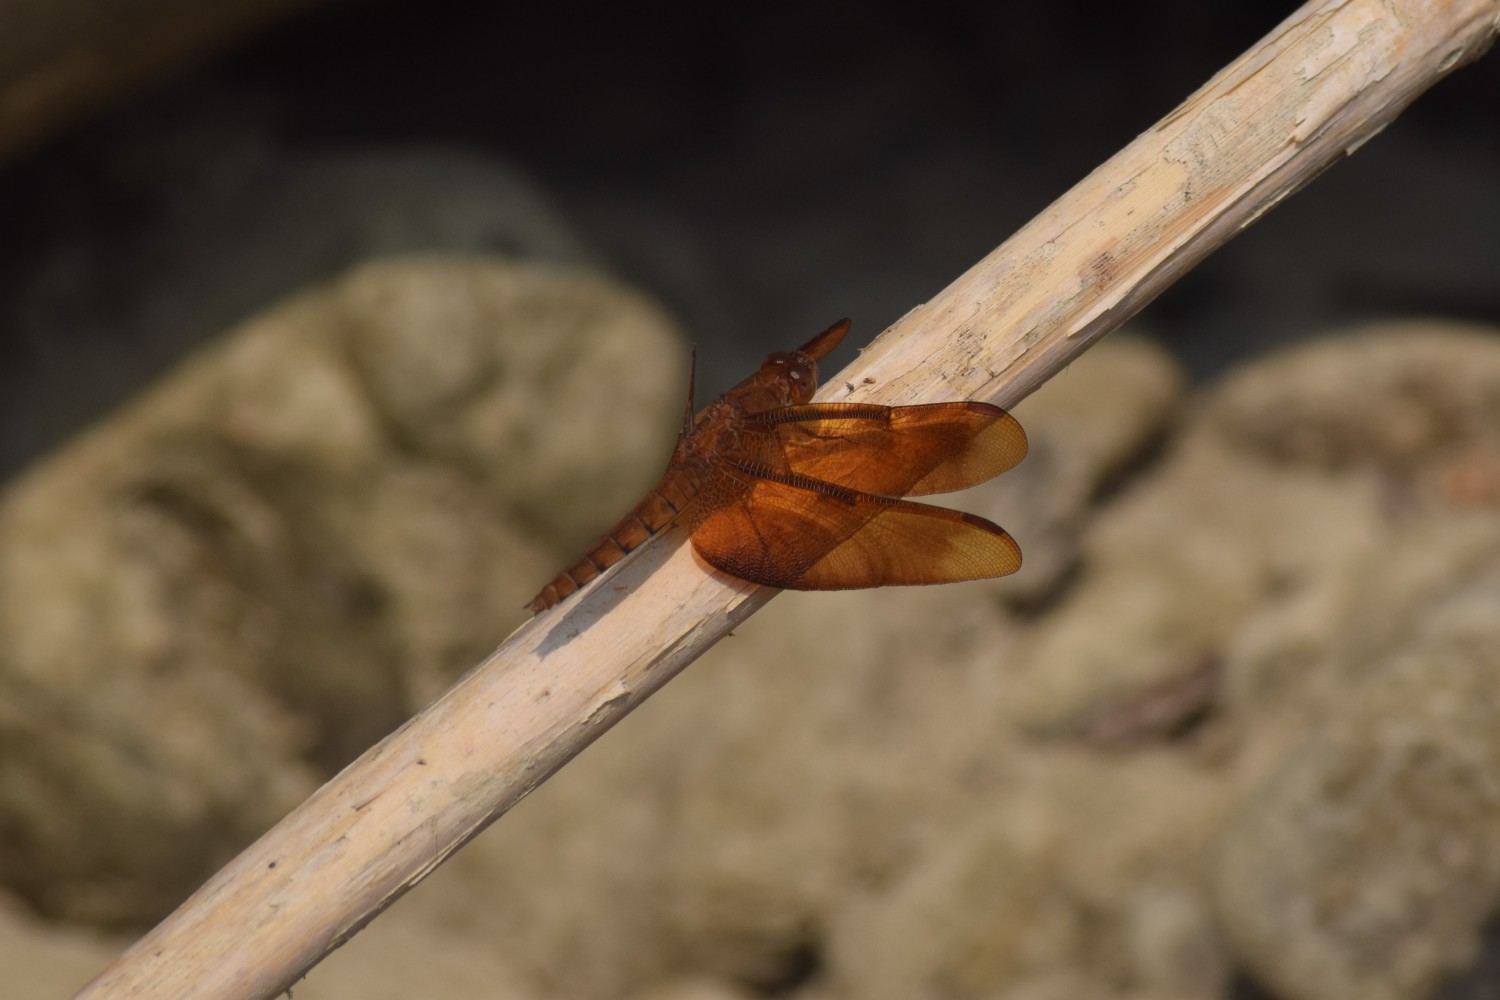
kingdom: Animalia
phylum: Arthropoda
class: Insecta
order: Odonata
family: Libellulidae
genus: Neurothemis
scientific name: Neurothemis fulvia
